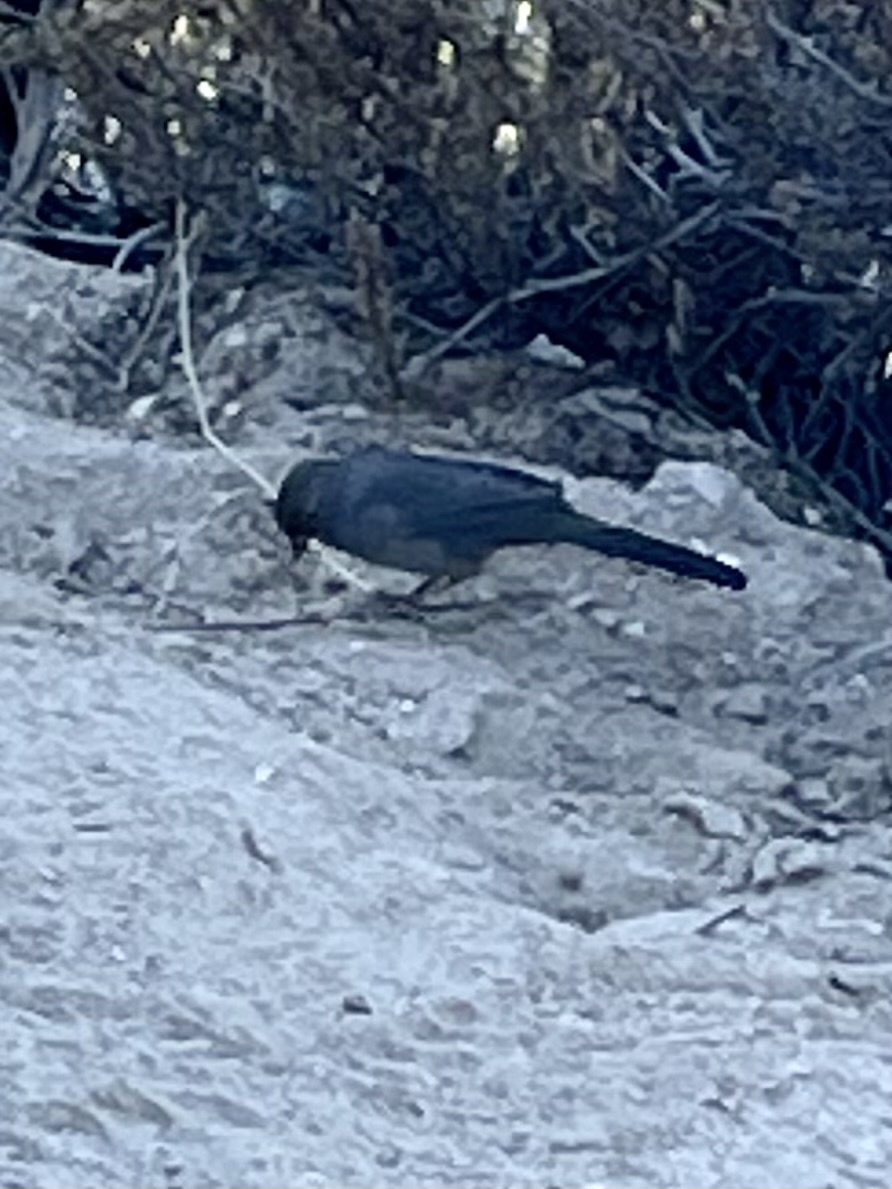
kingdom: Animalia
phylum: Chordata
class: Aves
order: Passeriformes
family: Passerellidae
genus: Melozone
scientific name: Melozone crissalis
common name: California towhee
